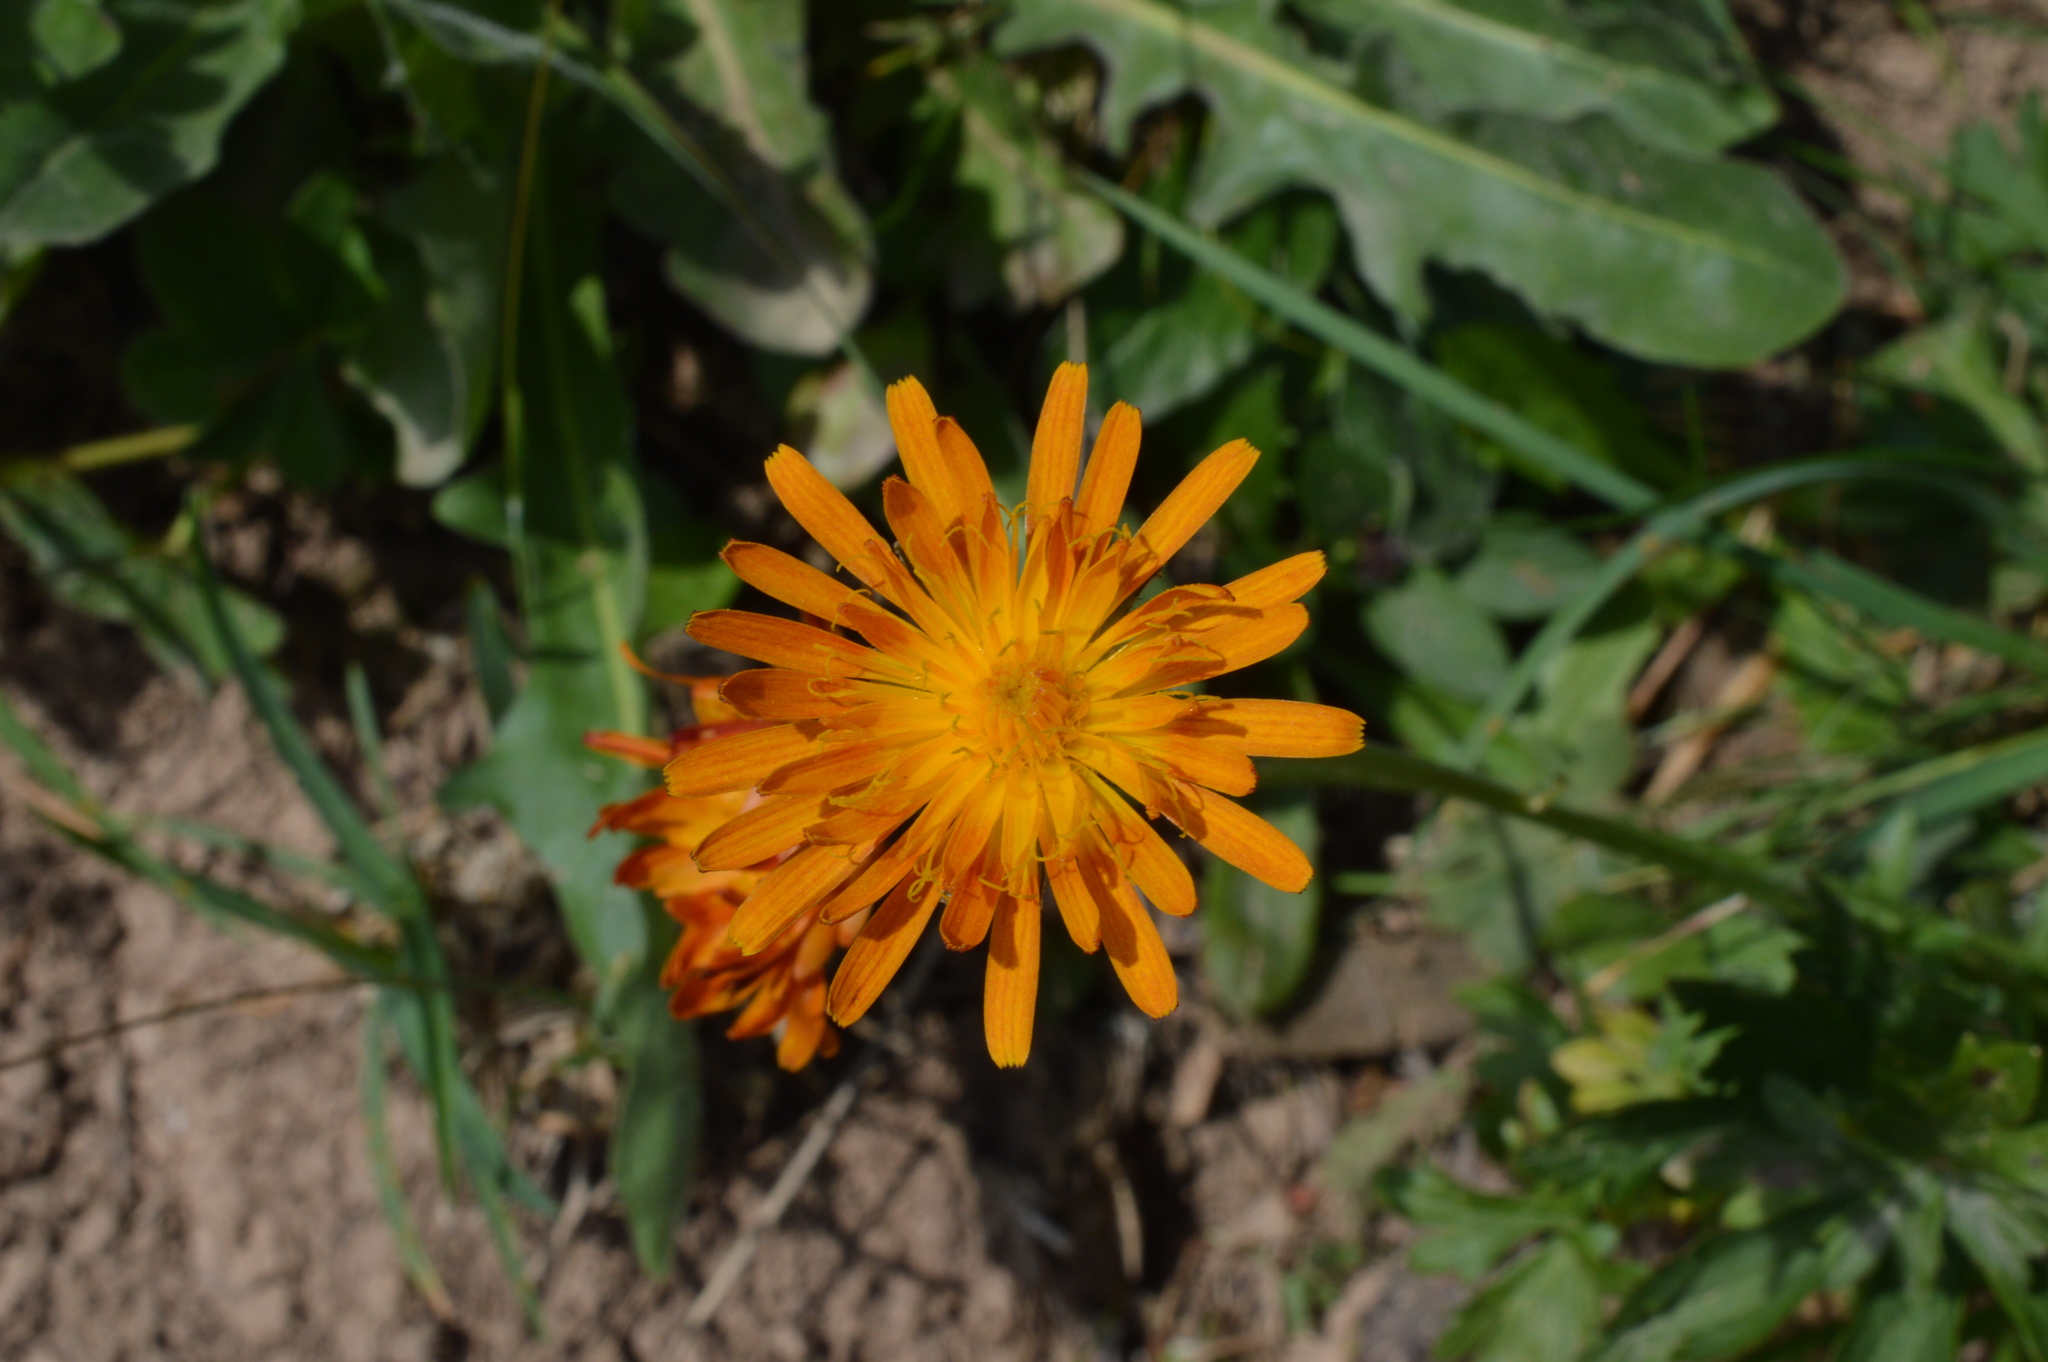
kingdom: Plantae
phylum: Tracheophyta
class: Magnoliopsida
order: Asterales
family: Asteraceae
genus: Crepis
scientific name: Crepis aurea
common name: Golden hawk's-beard
